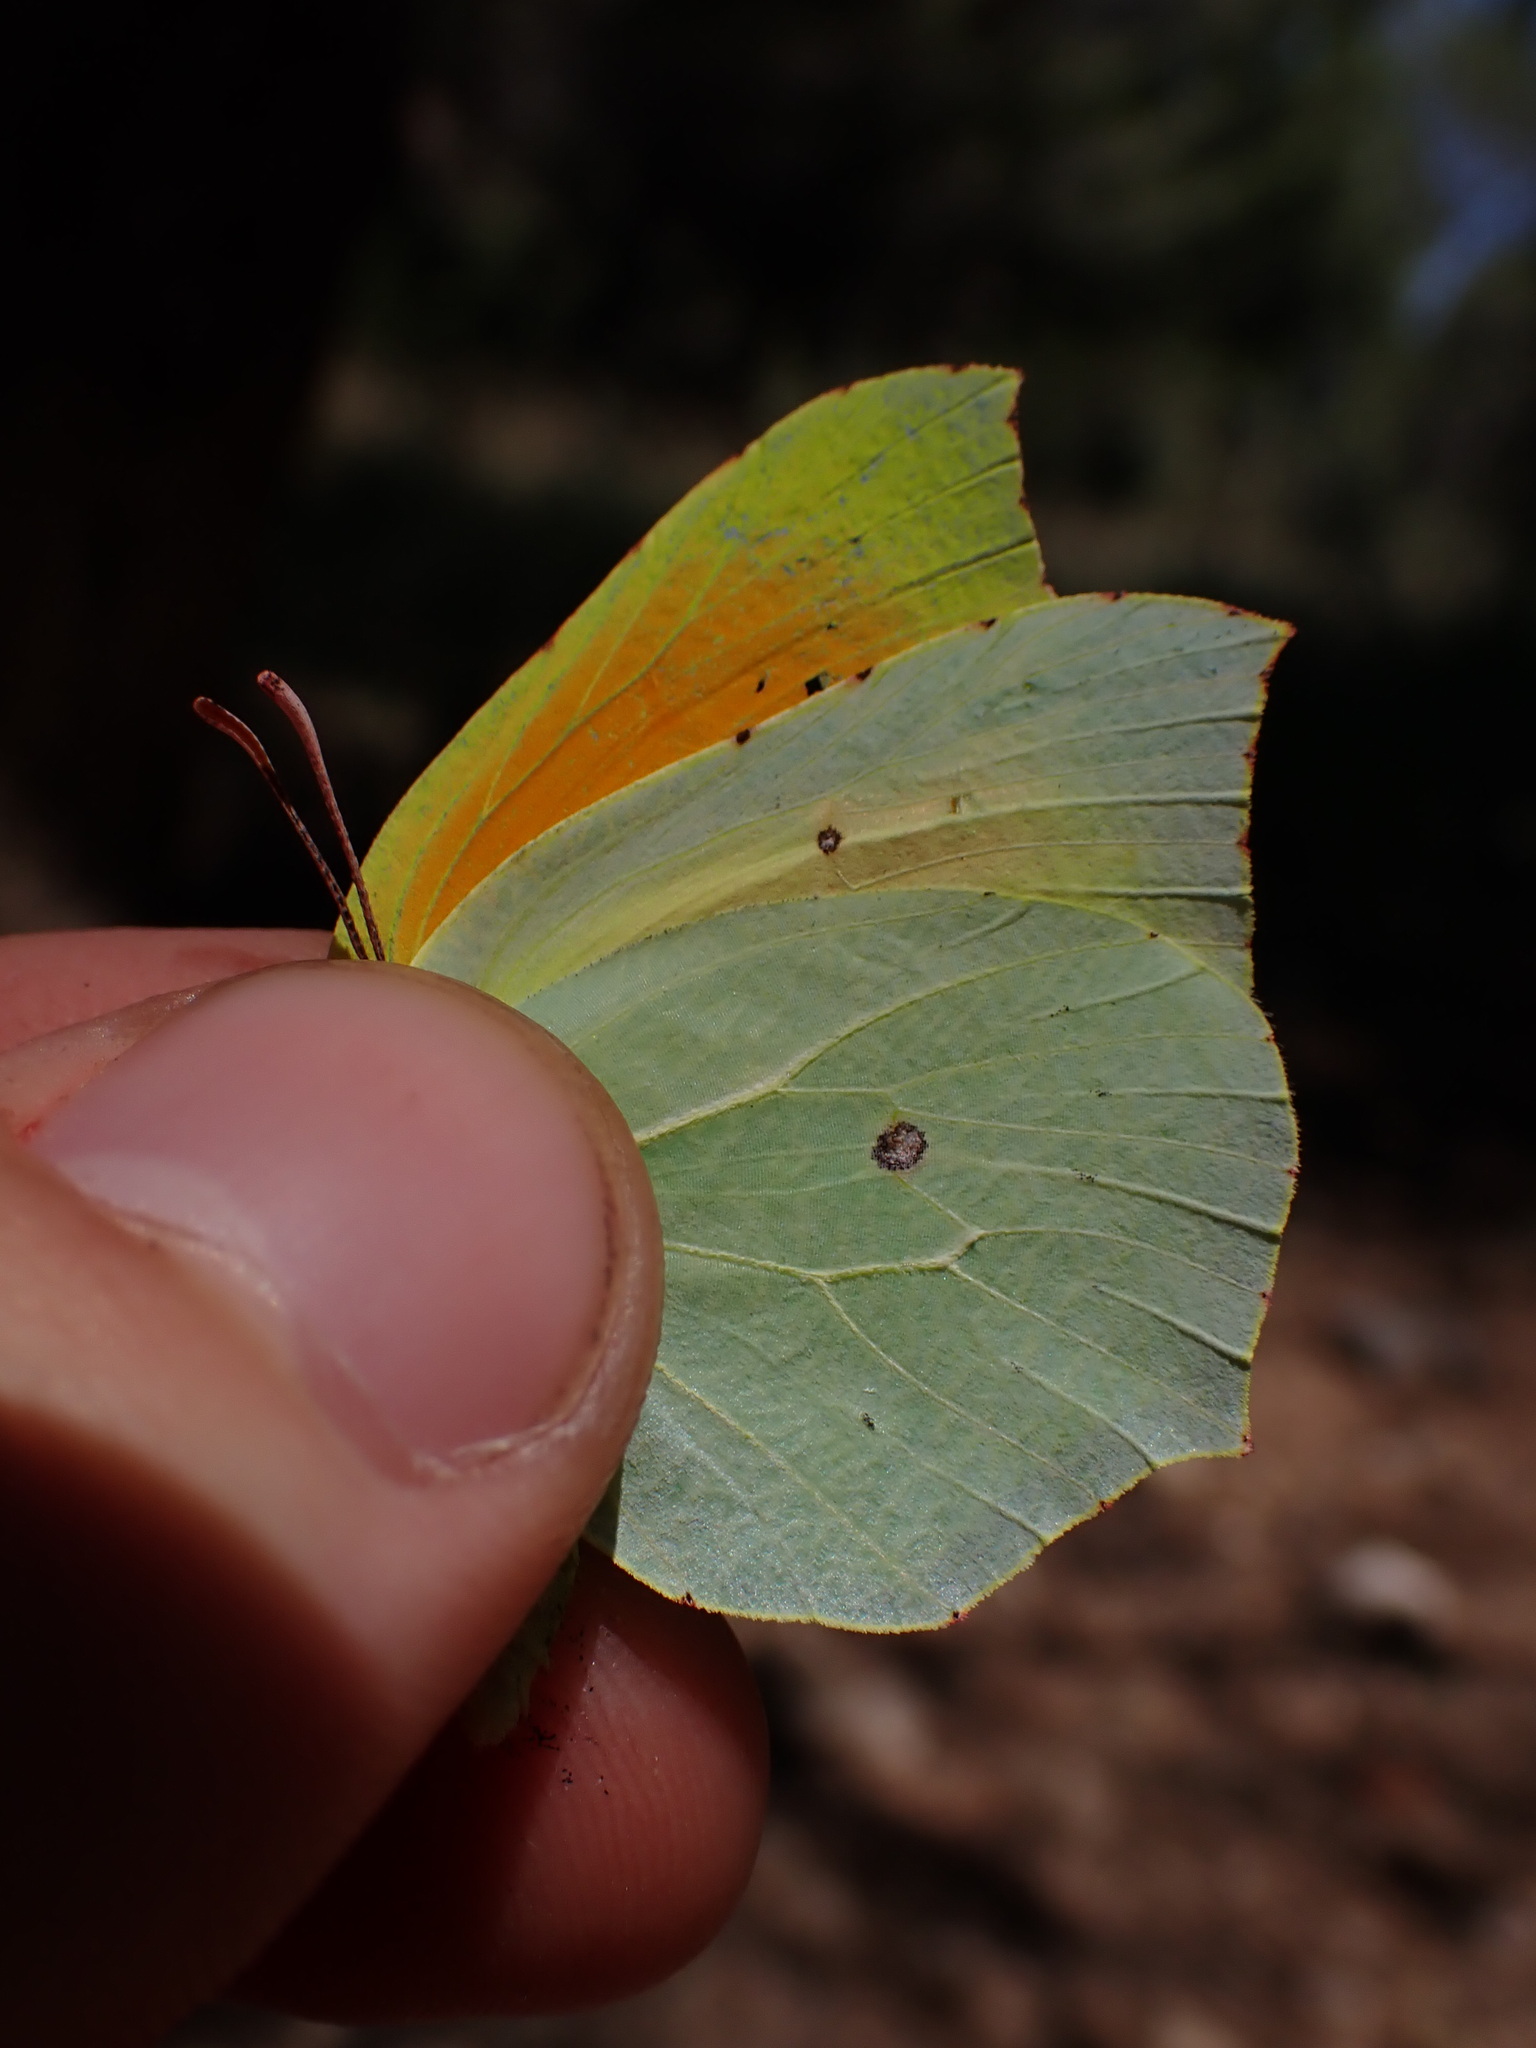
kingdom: Animalia
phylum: Arthropoda
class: Insecta
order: Lepidoptera
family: Pieridae
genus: Gonepteryx
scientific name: Gonepteryx cleopatra
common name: Cleopatra
